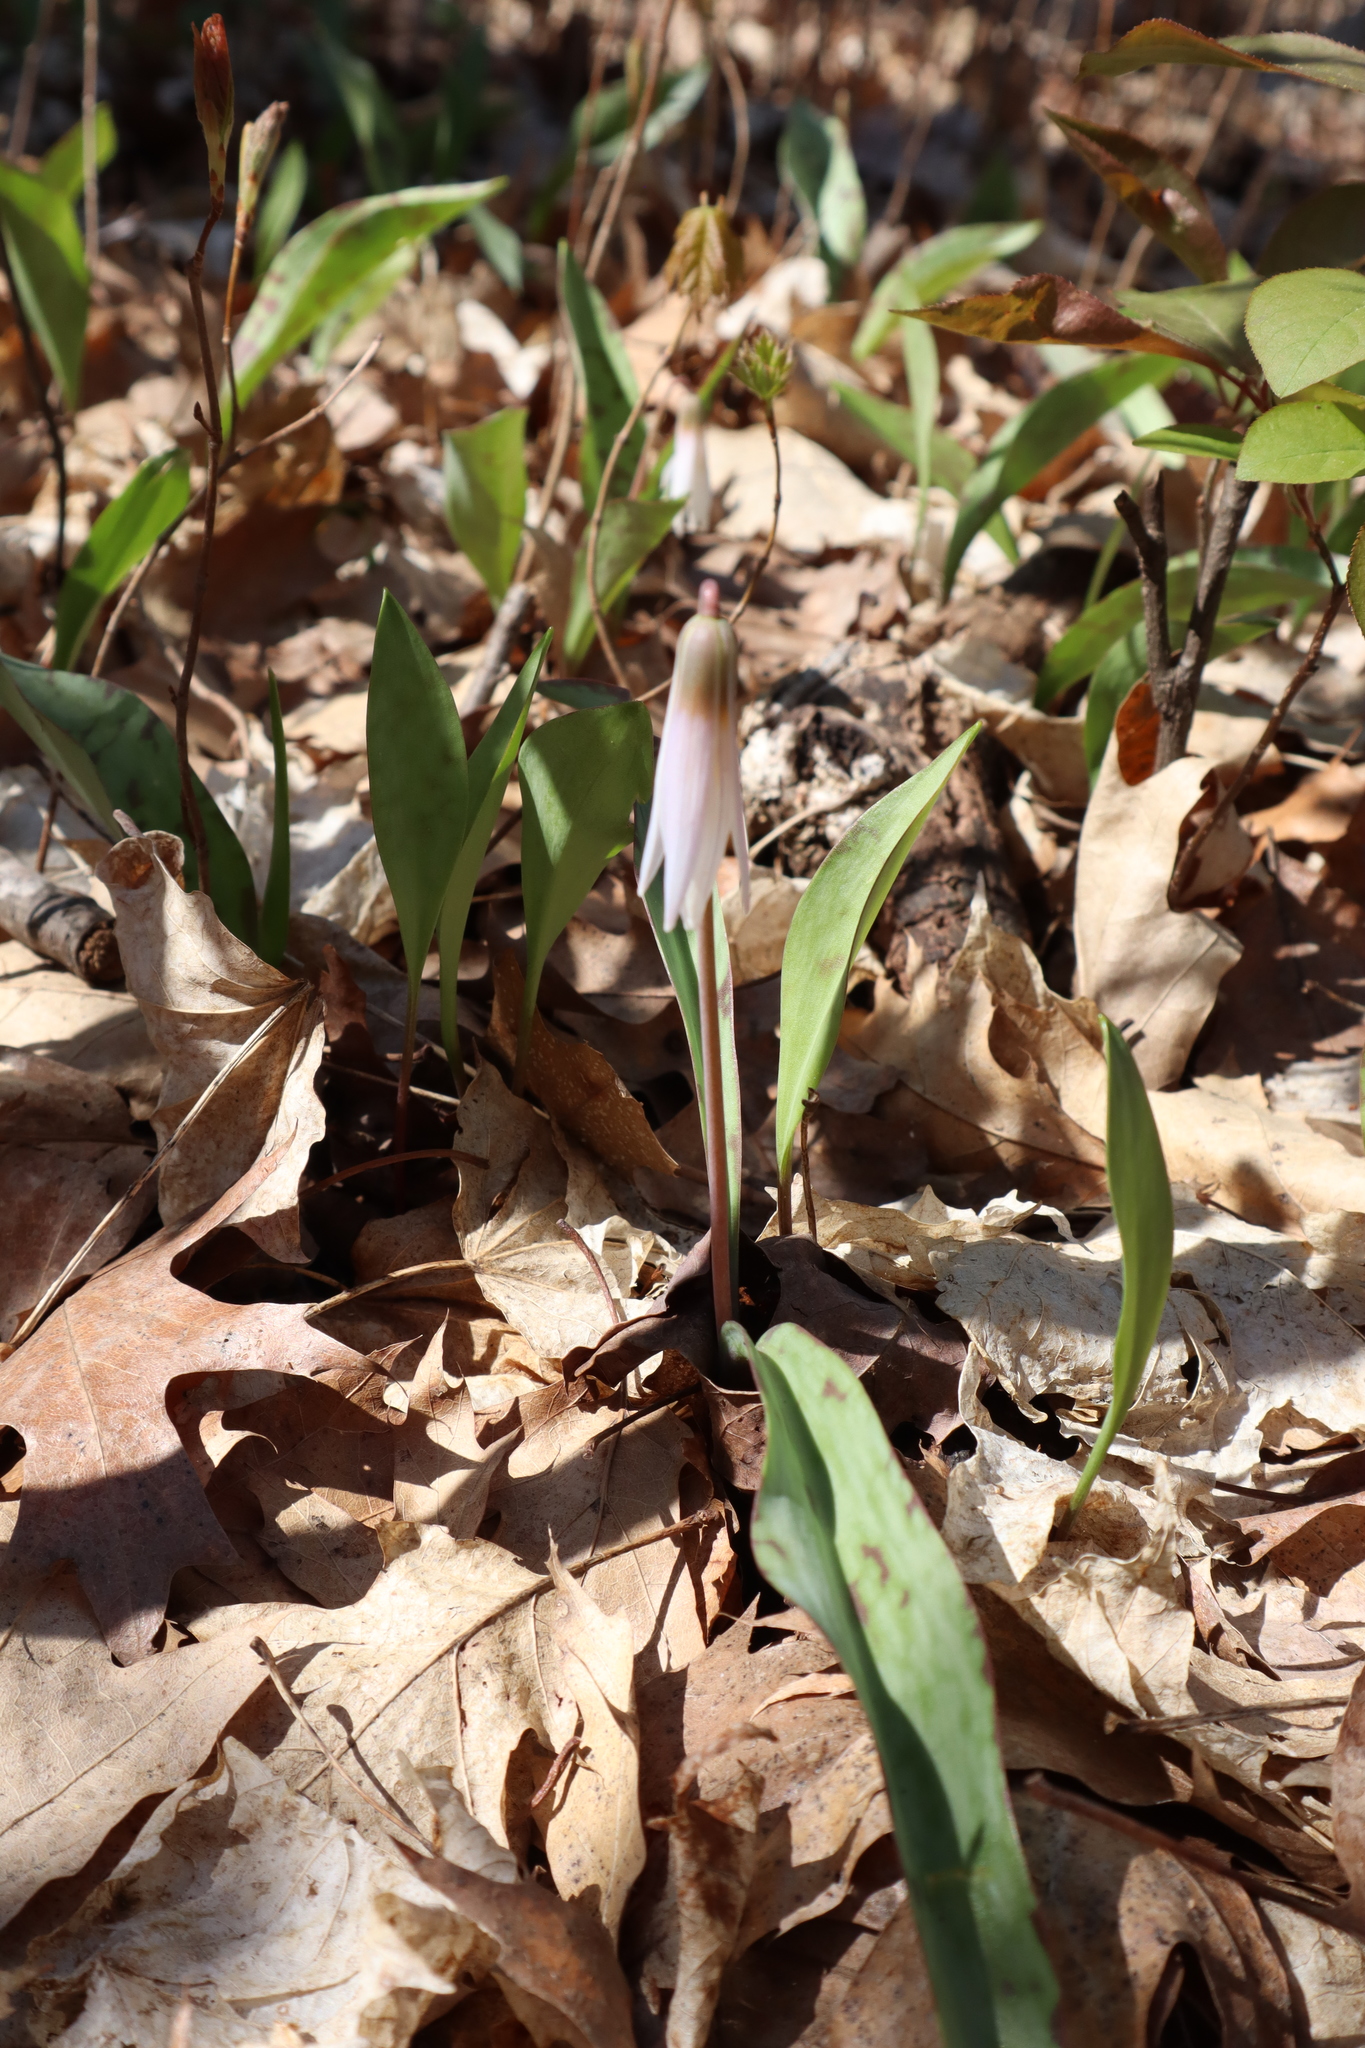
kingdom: Plantae
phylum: Tracheophyta
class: Liliopsida
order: Liliales
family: Liliaceae
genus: Erythronium
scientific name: Erythronium albidum
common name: White trout-lily
